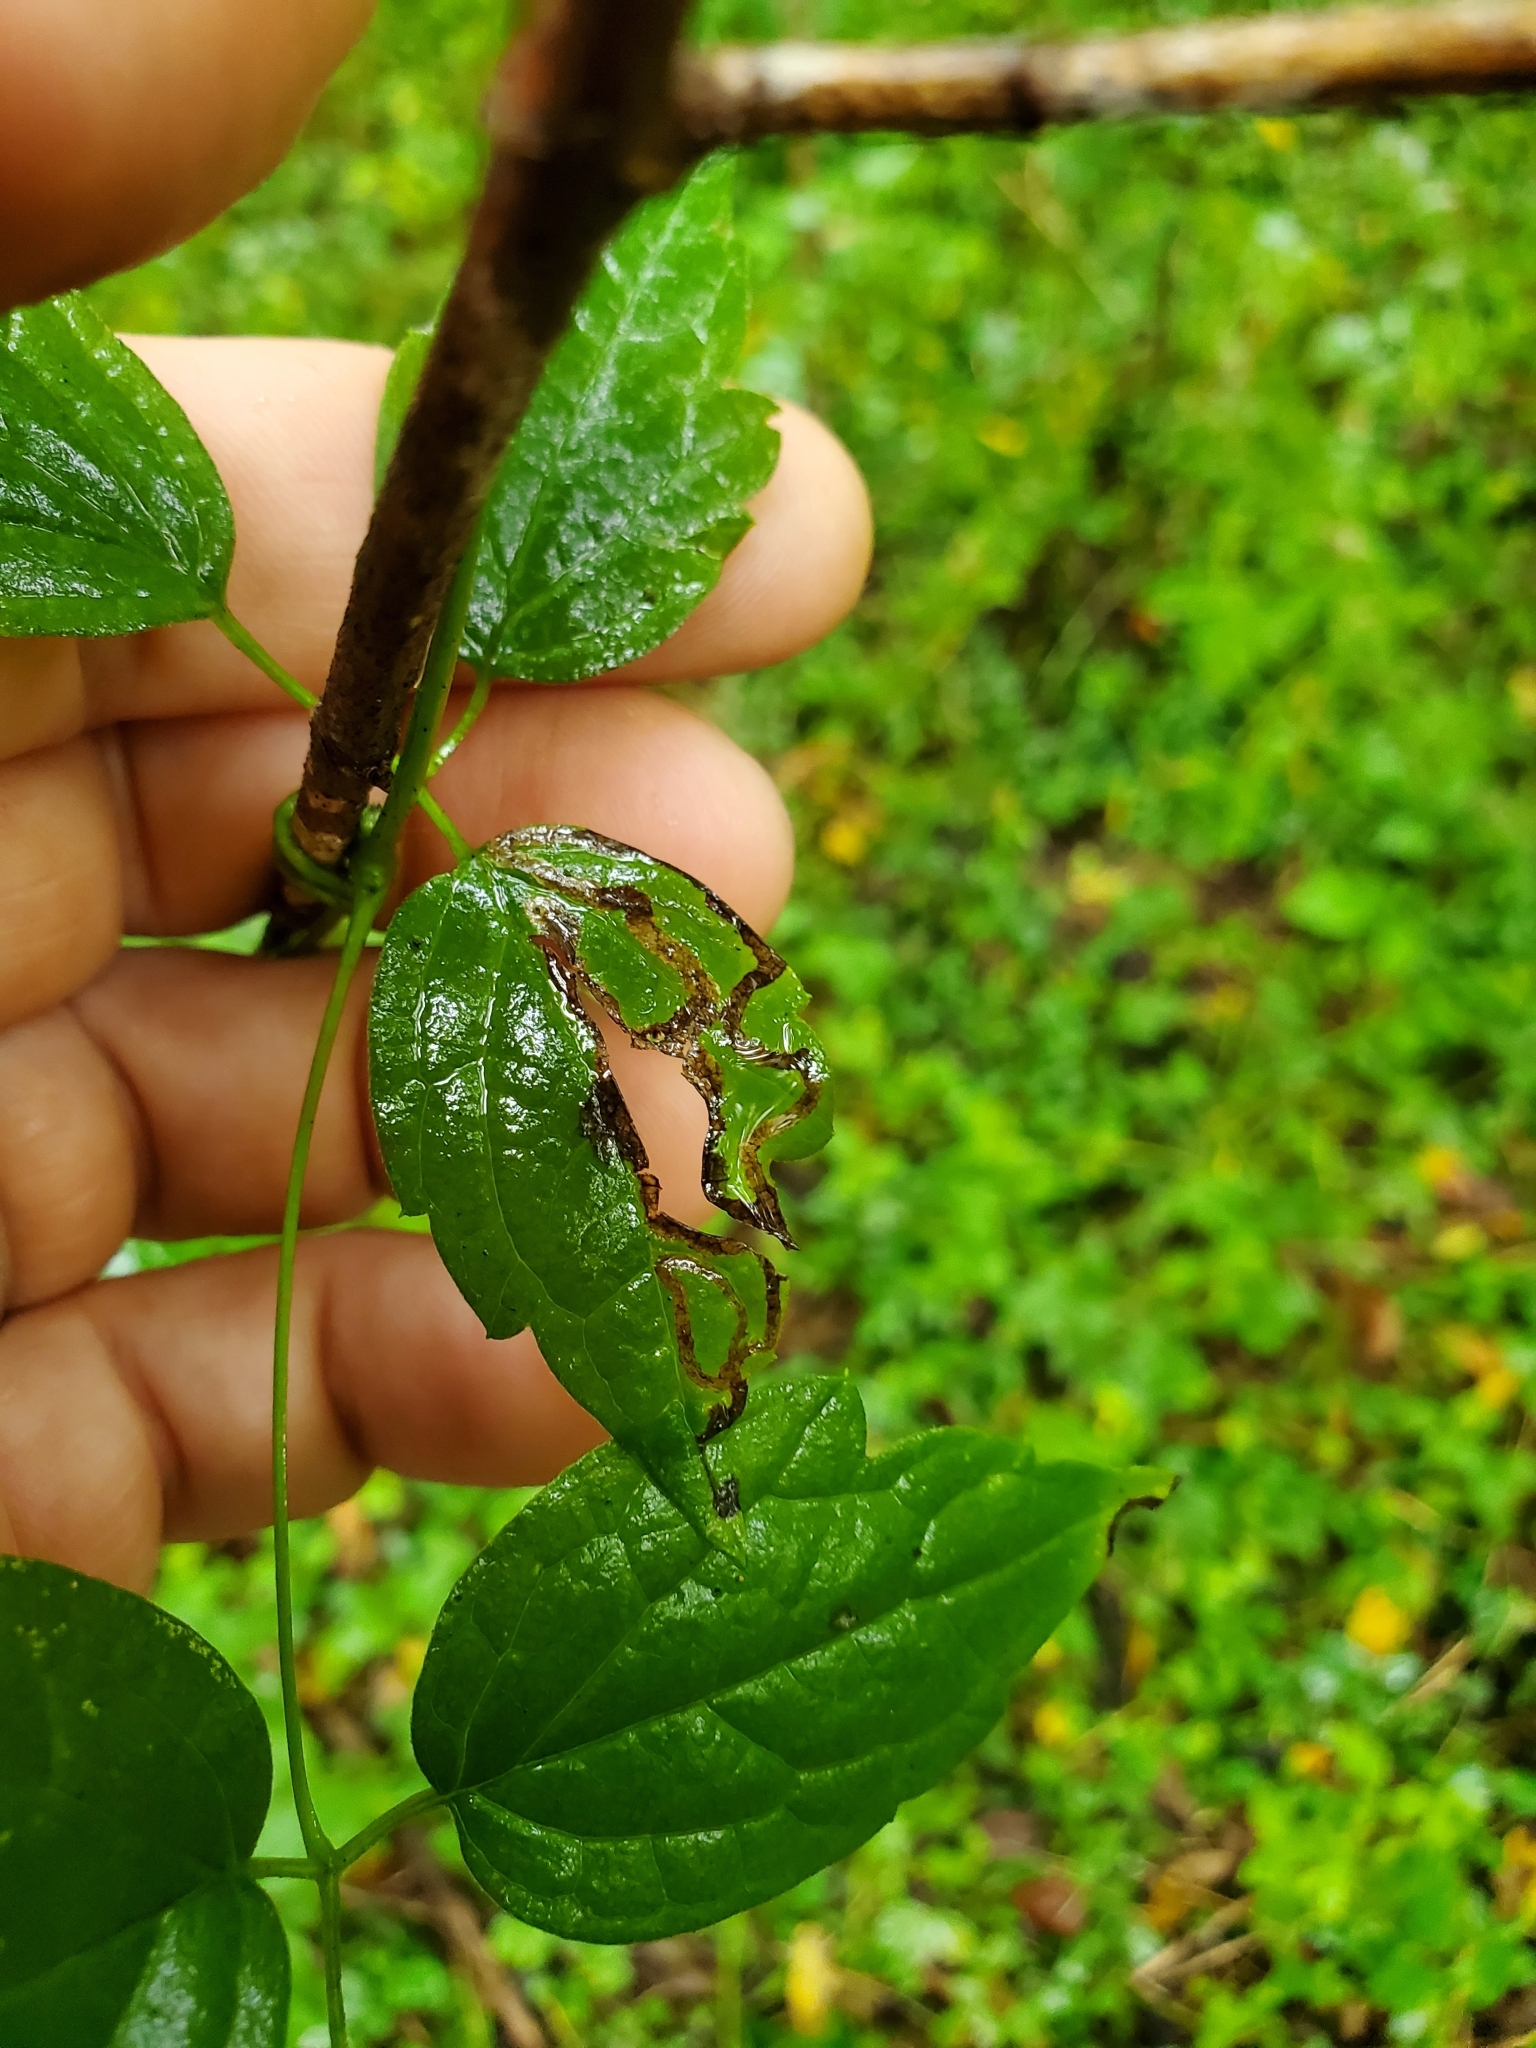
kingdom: Animalia
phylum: Arthropoda
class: Insecta
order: Diptera
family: Agromyzidae
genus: Phytomyza
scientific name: Phytomyza loewii
